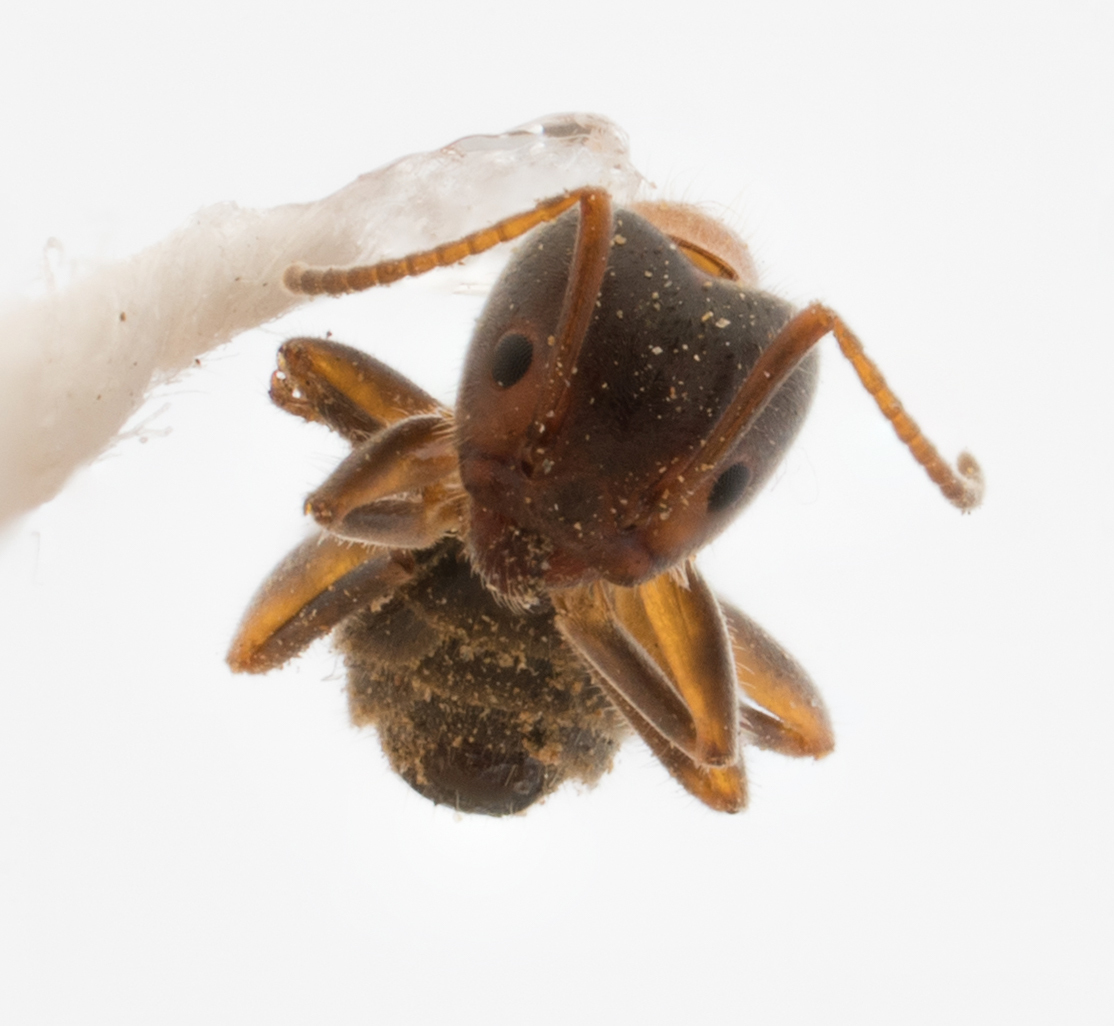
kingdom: Animalia
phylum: Arthropoda
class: Insecta
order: Hymenoptera
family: Formicidae
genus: Liometopum
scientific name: Liometopum occidentale
